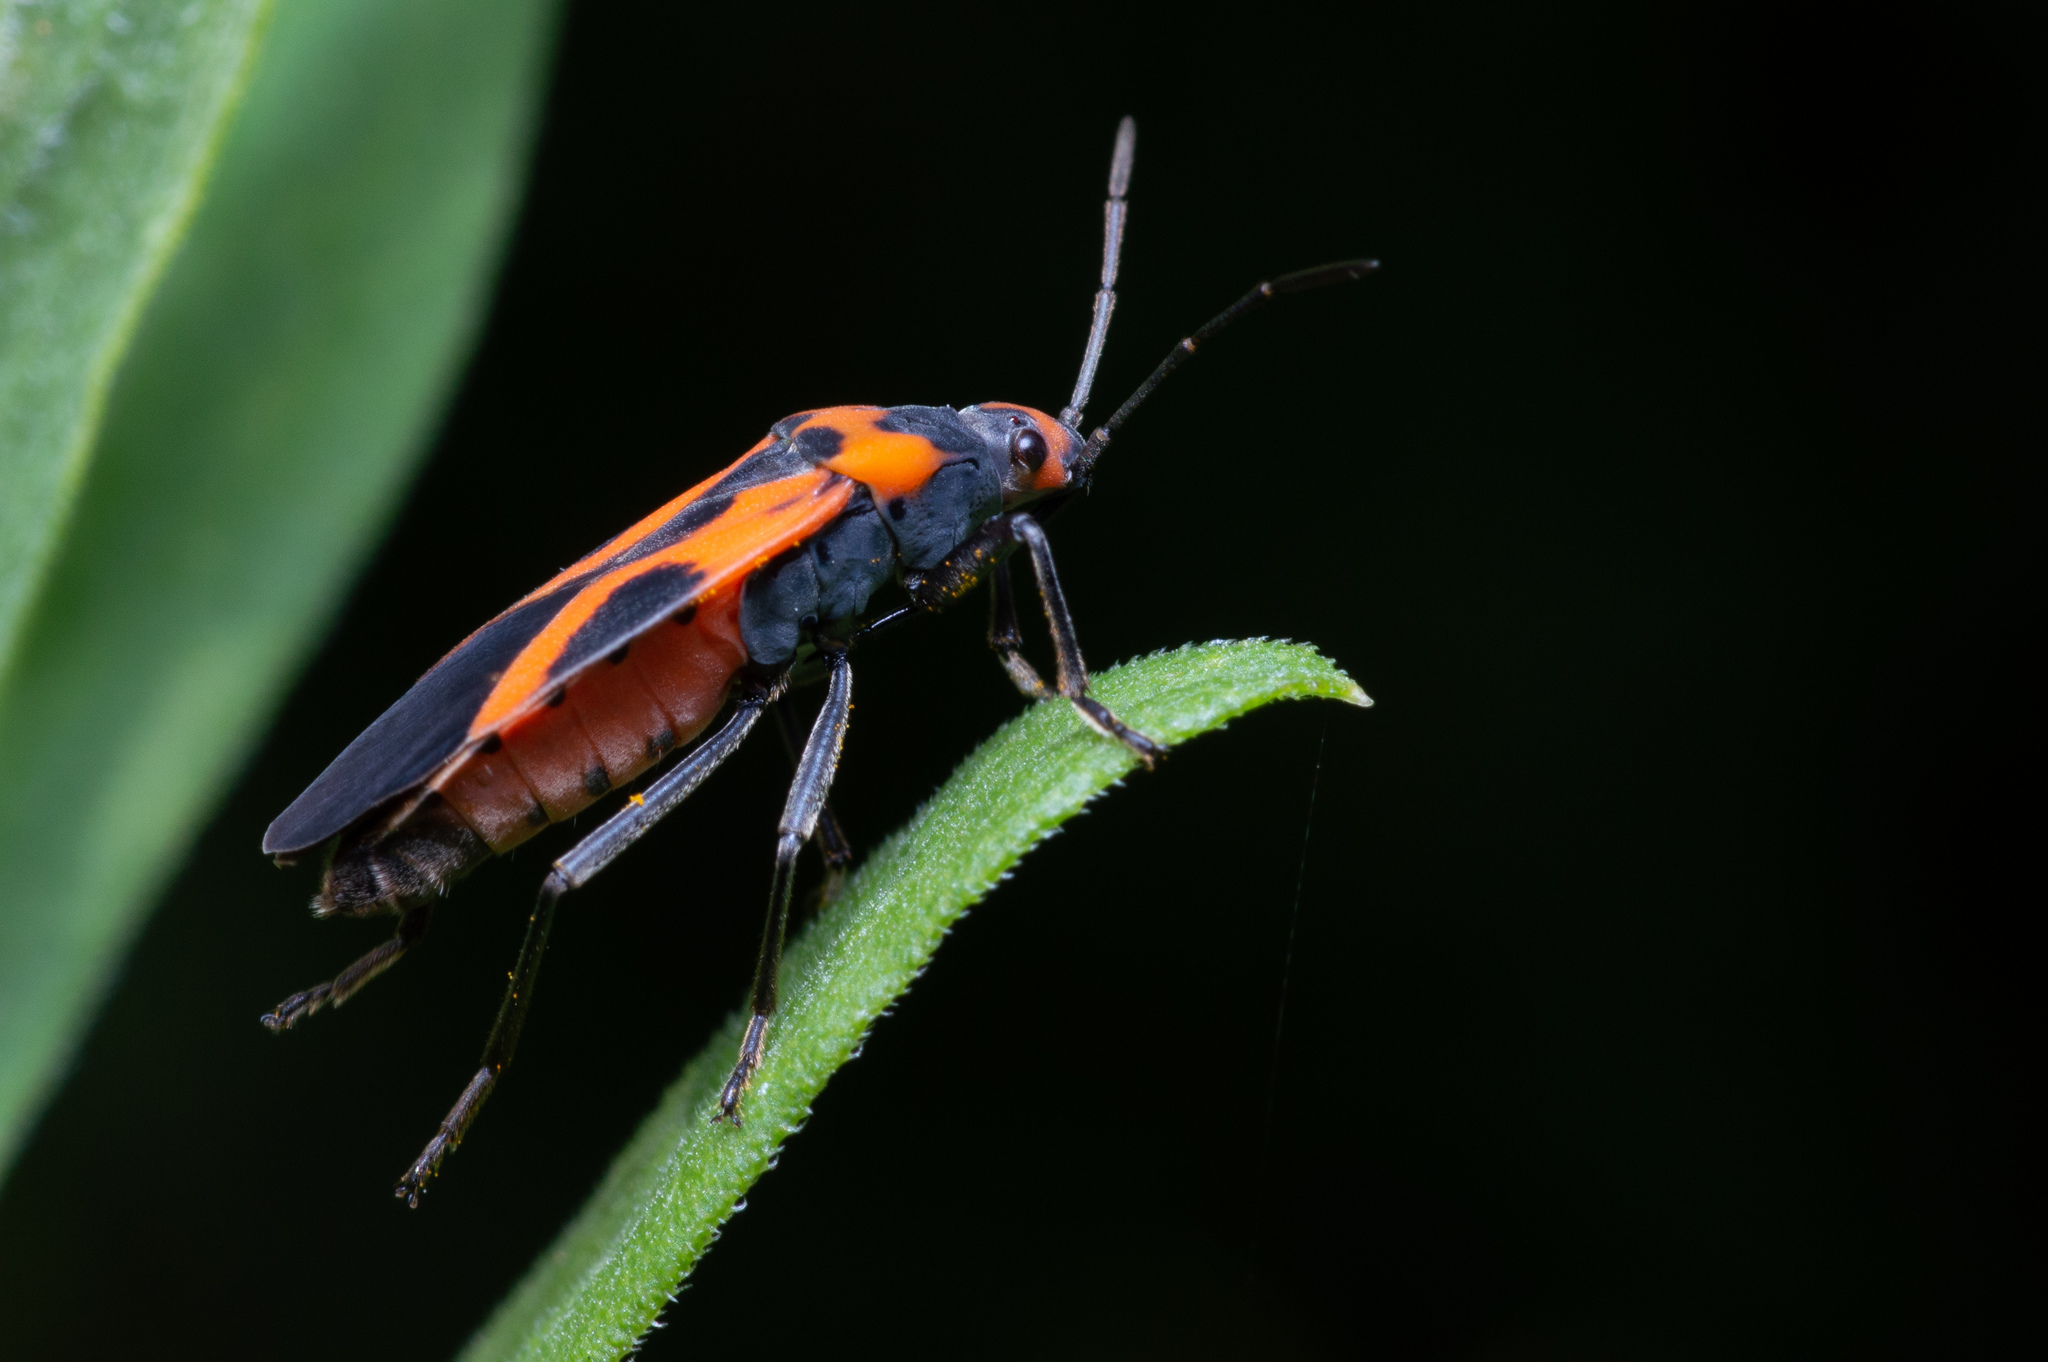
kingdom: Animalia
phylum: Arthropoda
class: Insecta
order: Hemiptera
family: Lygaeidae
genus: Lygaeus
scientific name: Lygaeus turcicus
